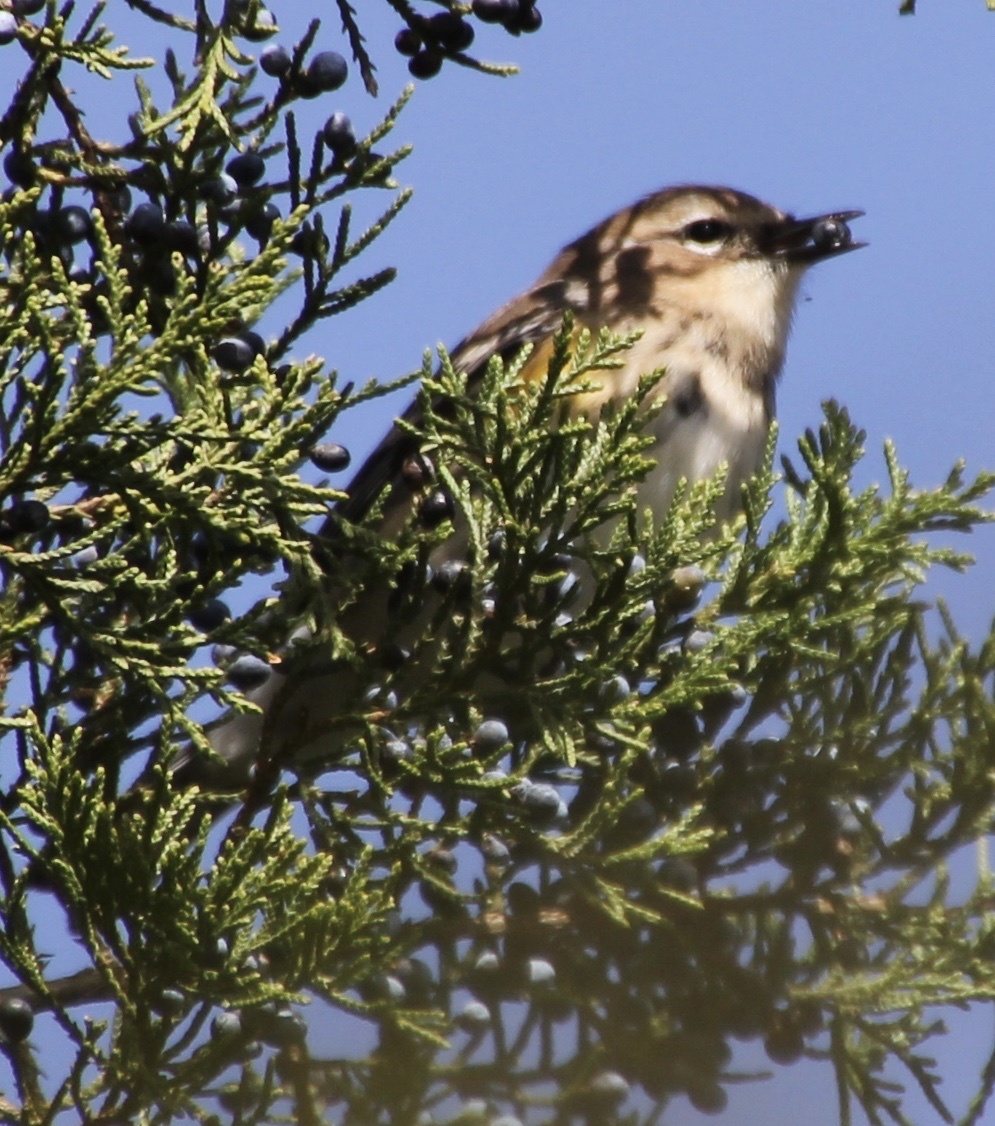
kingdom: Animalia
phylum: Chordata
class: Aves
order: Passeriformes
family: Parulidae
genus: Setophaga
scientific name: Setophaga coronata
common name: Myrtle warbler
